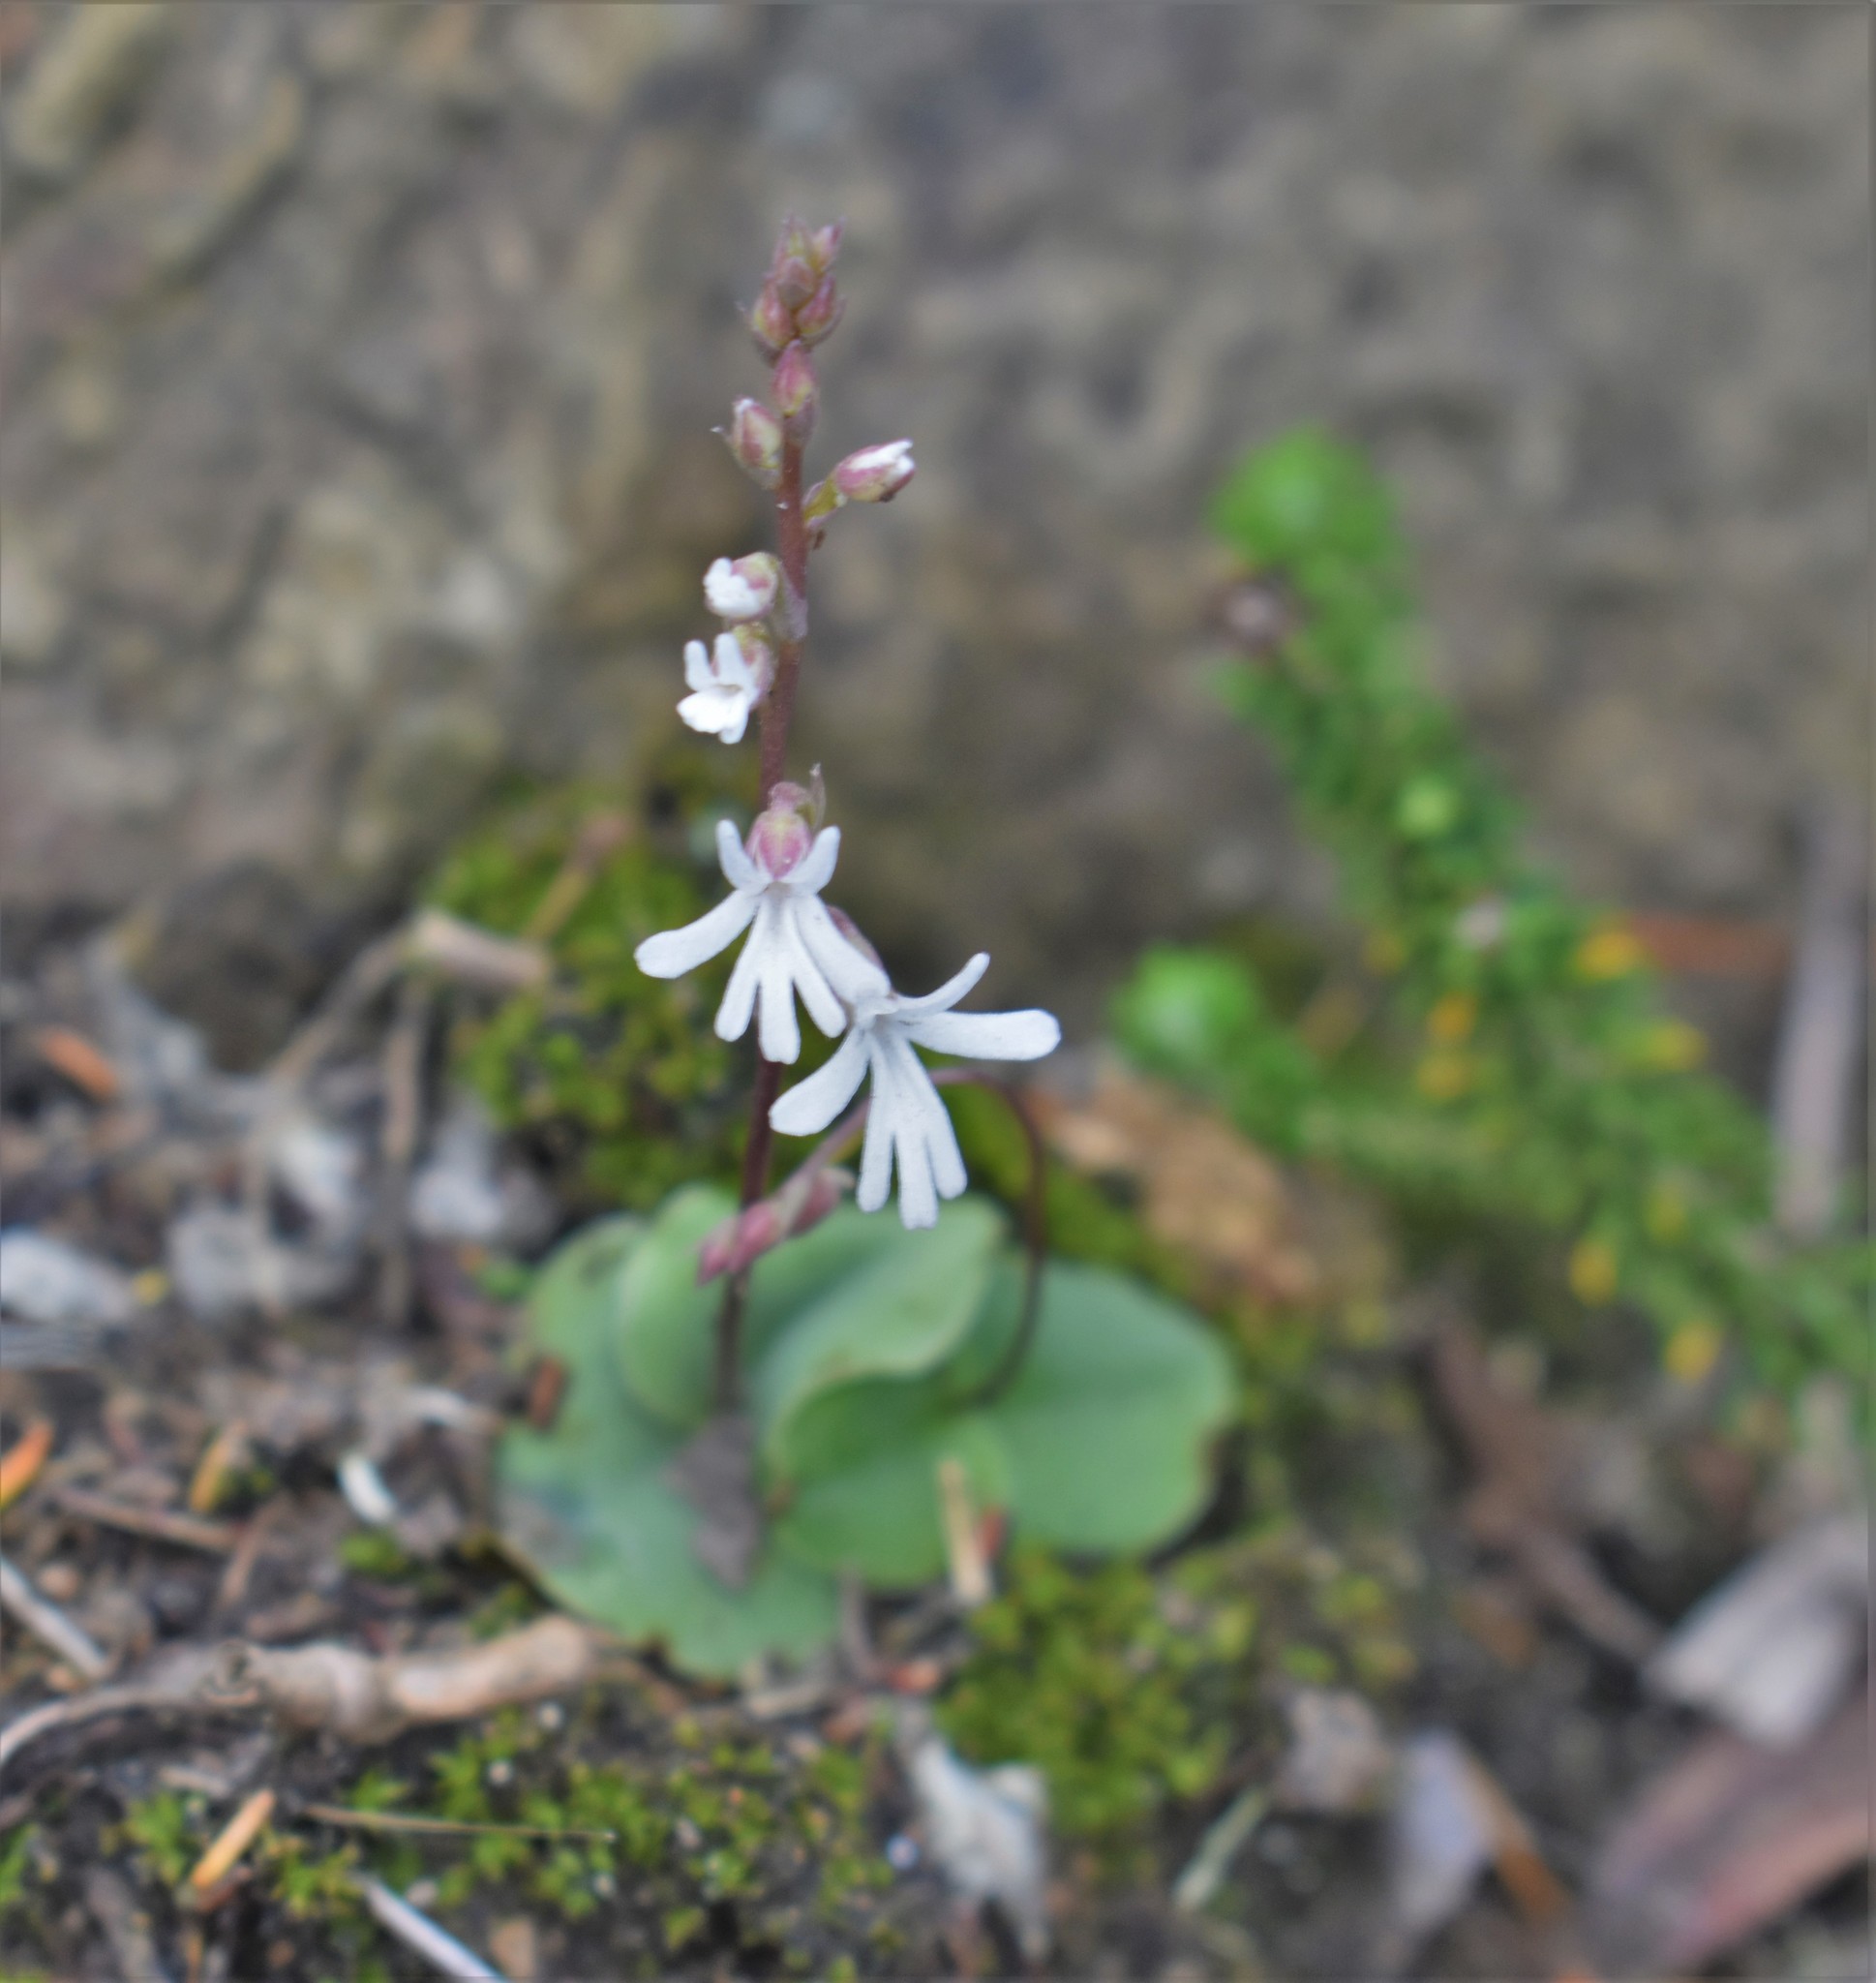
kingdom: Plantae
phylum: Tracheophyta
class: Liliopsida
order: Asparagales
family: Orchidaceae
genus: Holothrix
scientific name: Holothrix parviflora
